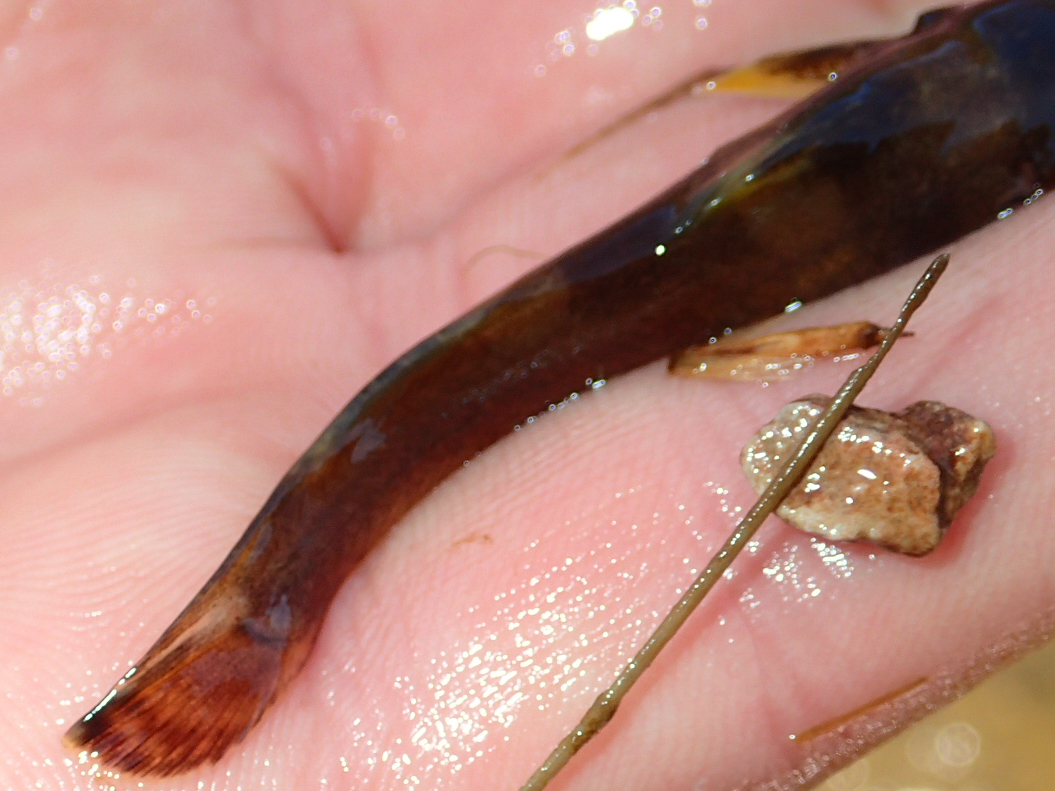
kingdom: Animalia
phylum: Chordata
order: Siluriformes
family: Ictaluridae
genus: Noturus
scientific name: Noturus elegans
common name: Elegant madtom
